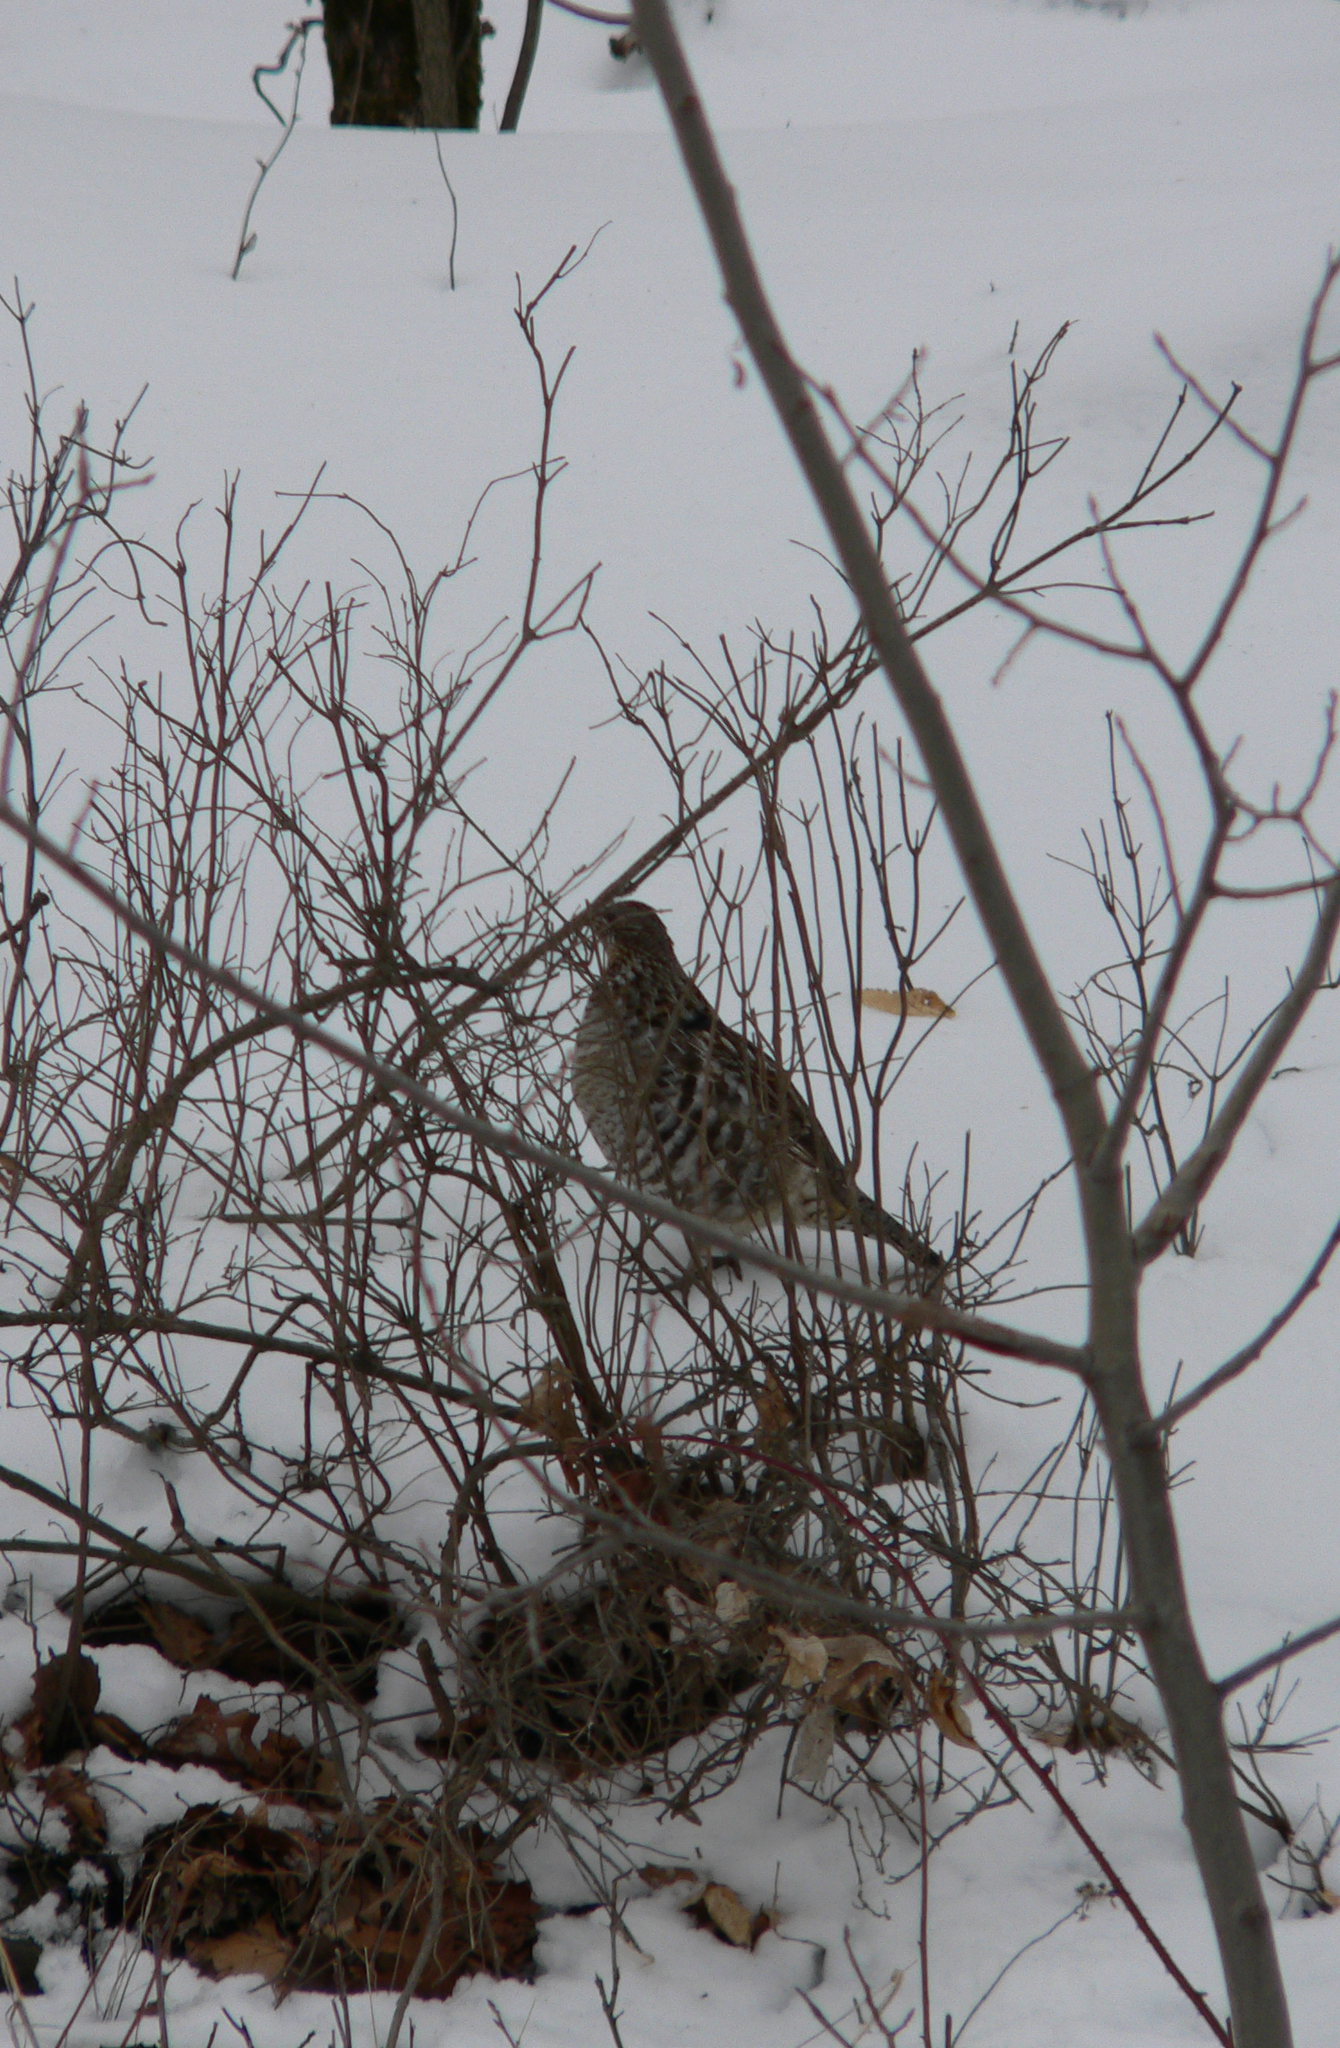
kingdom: Animalia
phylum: Chordata
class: Aves
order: Galliformes
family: Phasianidae
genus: Bonasa
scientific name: Bonasa umbellus
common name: Ruffed grouse
